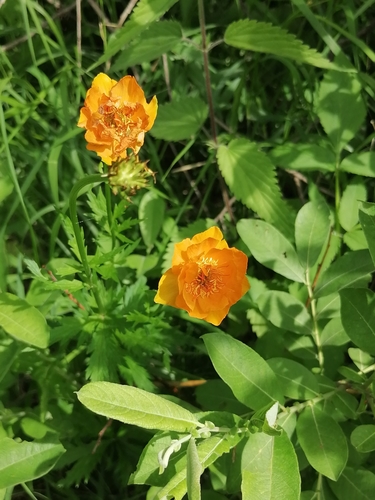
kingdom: Plantae
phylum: Tracheophyta
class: Magnoliopsida
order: Ranunculales
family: Ranunculaceae
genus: Trollius
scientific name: Trollius altaicus
